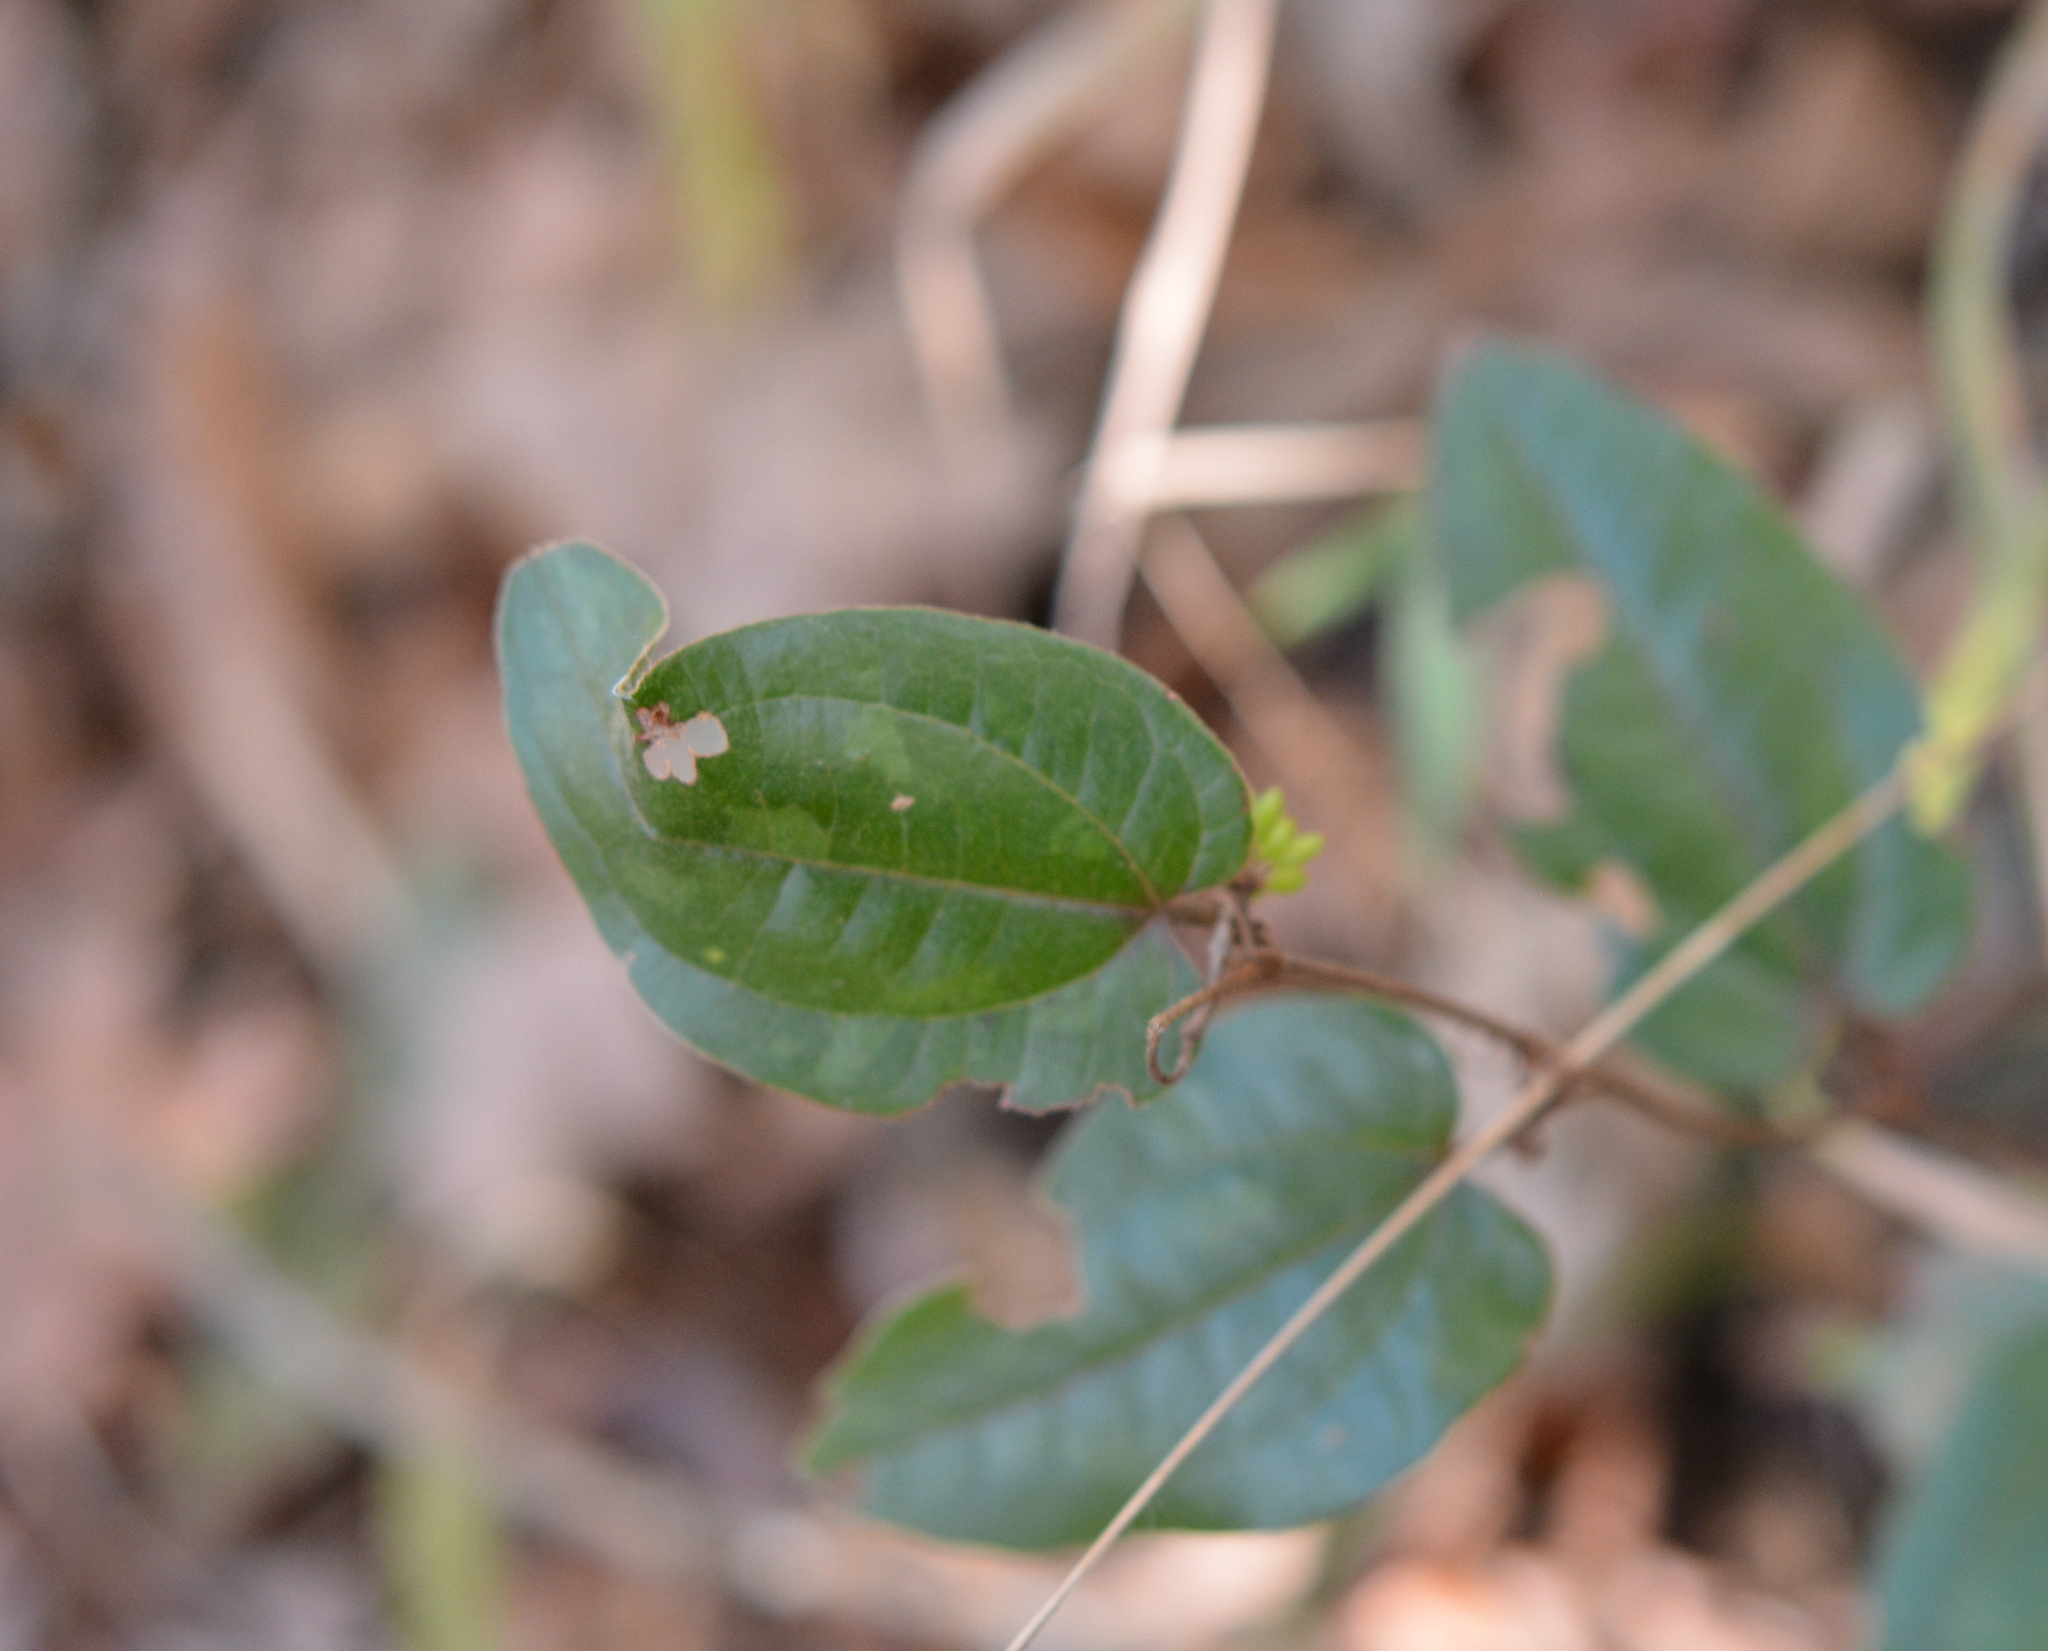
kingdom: Plantae
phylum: Tracheophyta
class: Liliopsida
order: Liliales
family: Smilacaceae
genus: Smilax
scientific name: Smilax pumila
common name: Sarsaparilla-vine
